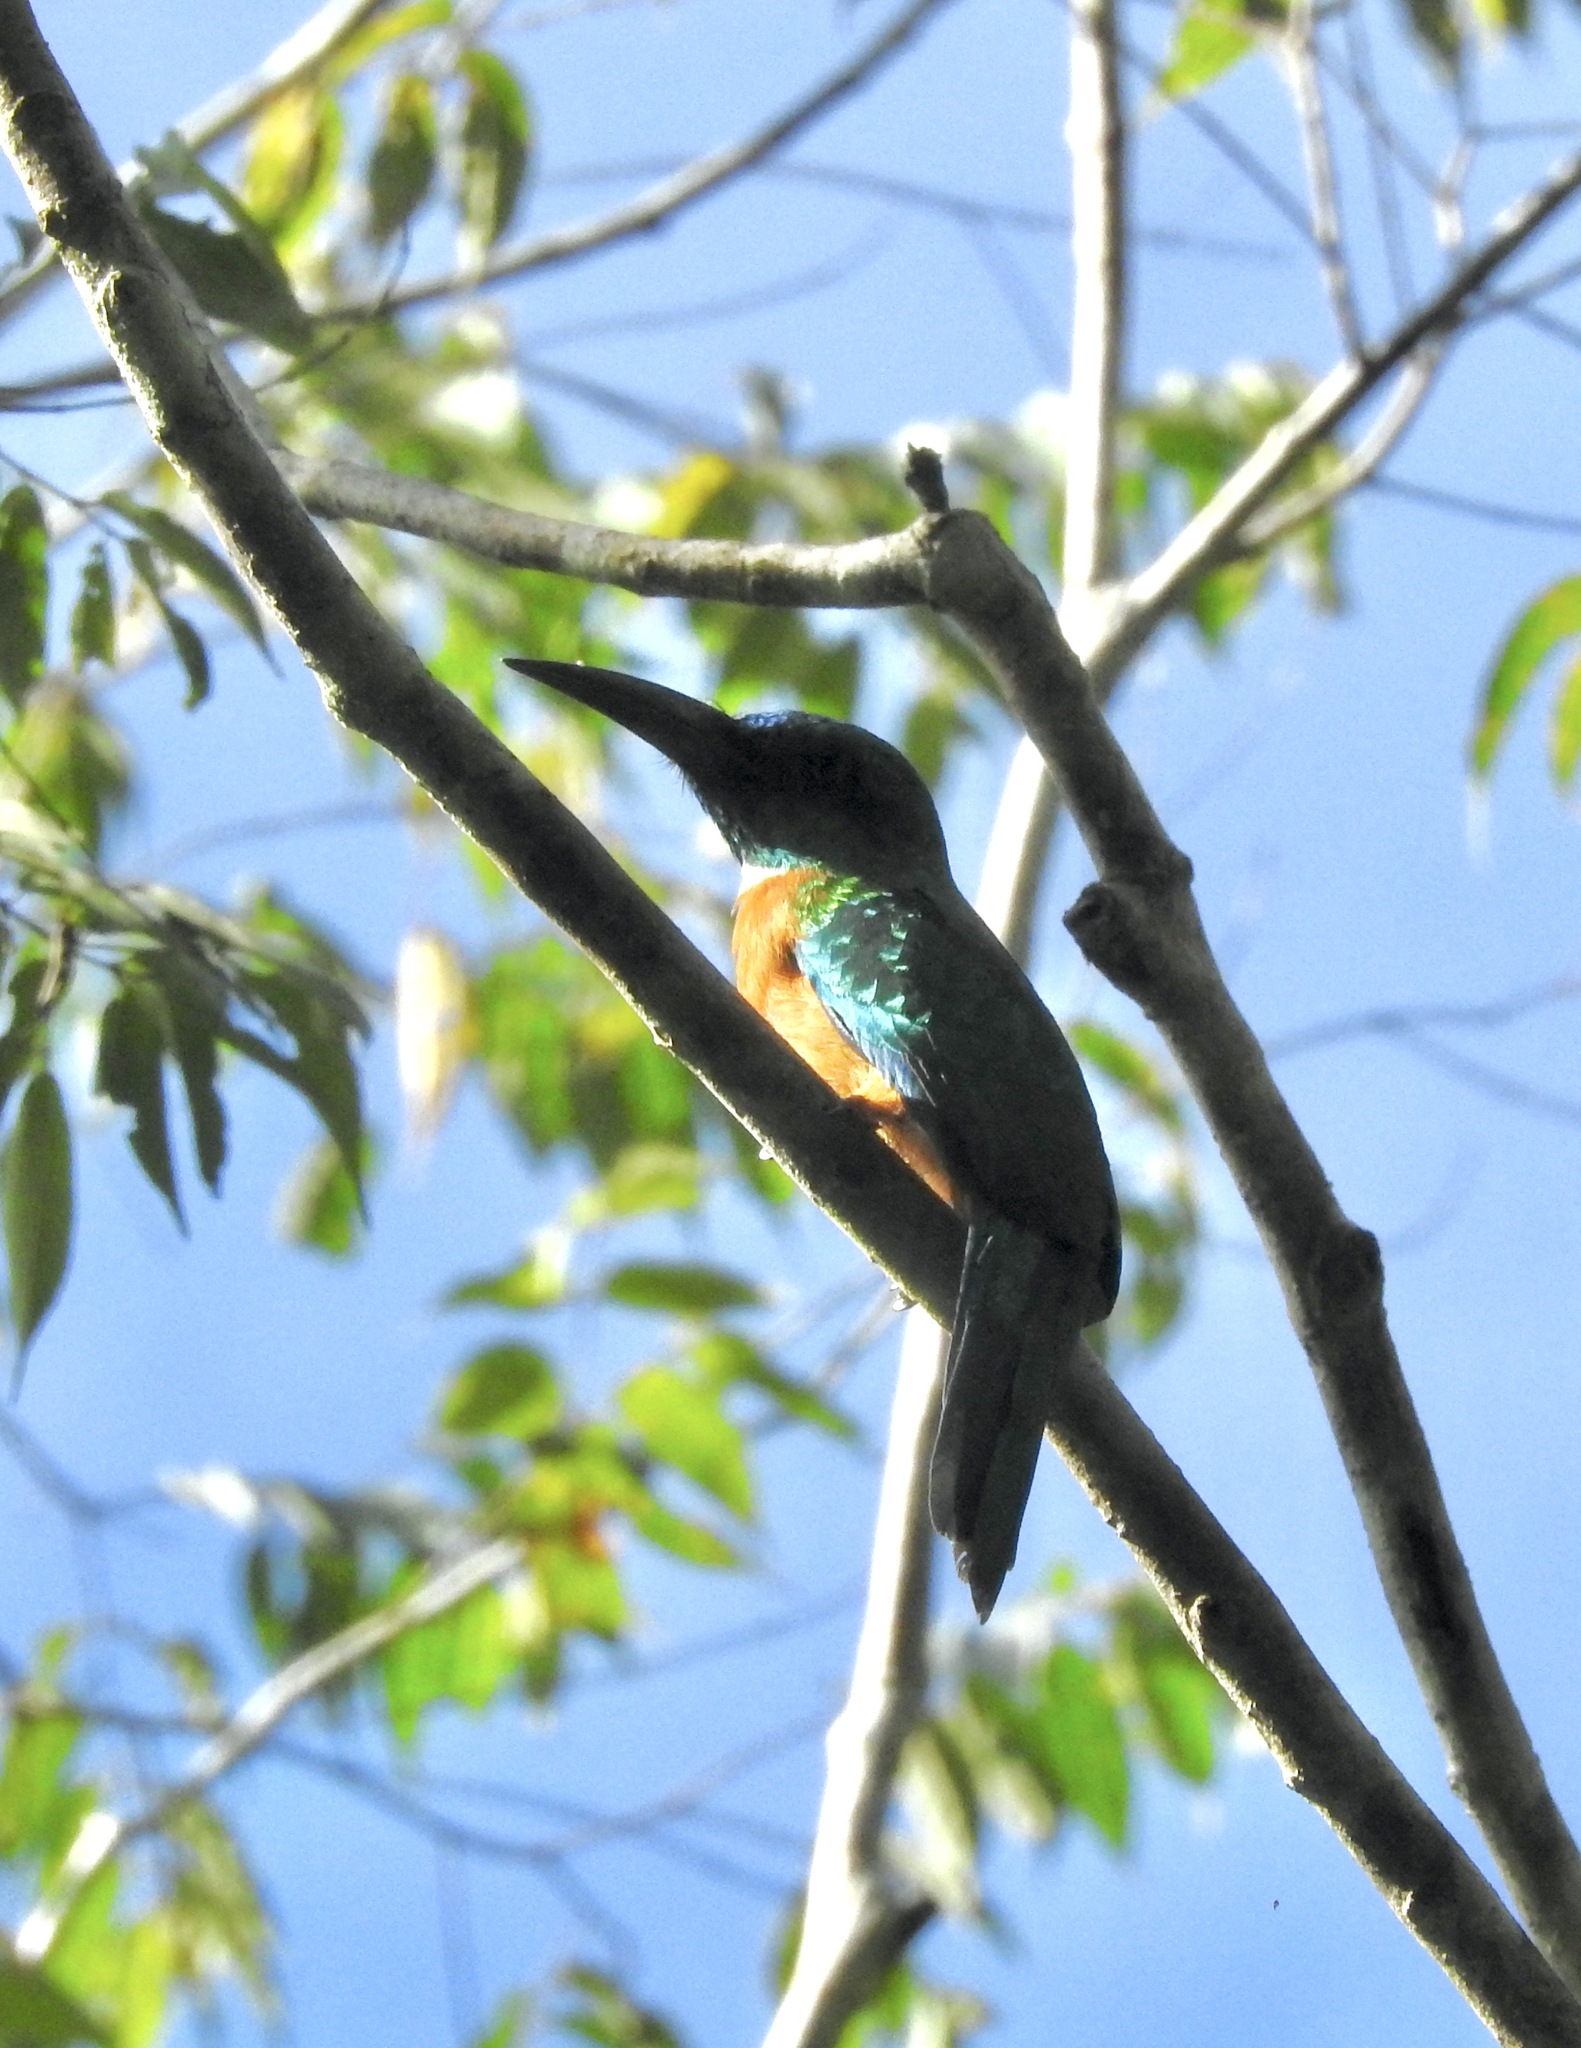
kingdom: Animalia
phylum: Chordata
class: Aves
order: Piciformes
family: Galbulidae
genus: Jacamerops
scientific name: Jacamerops aureus
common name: Great jacamar
